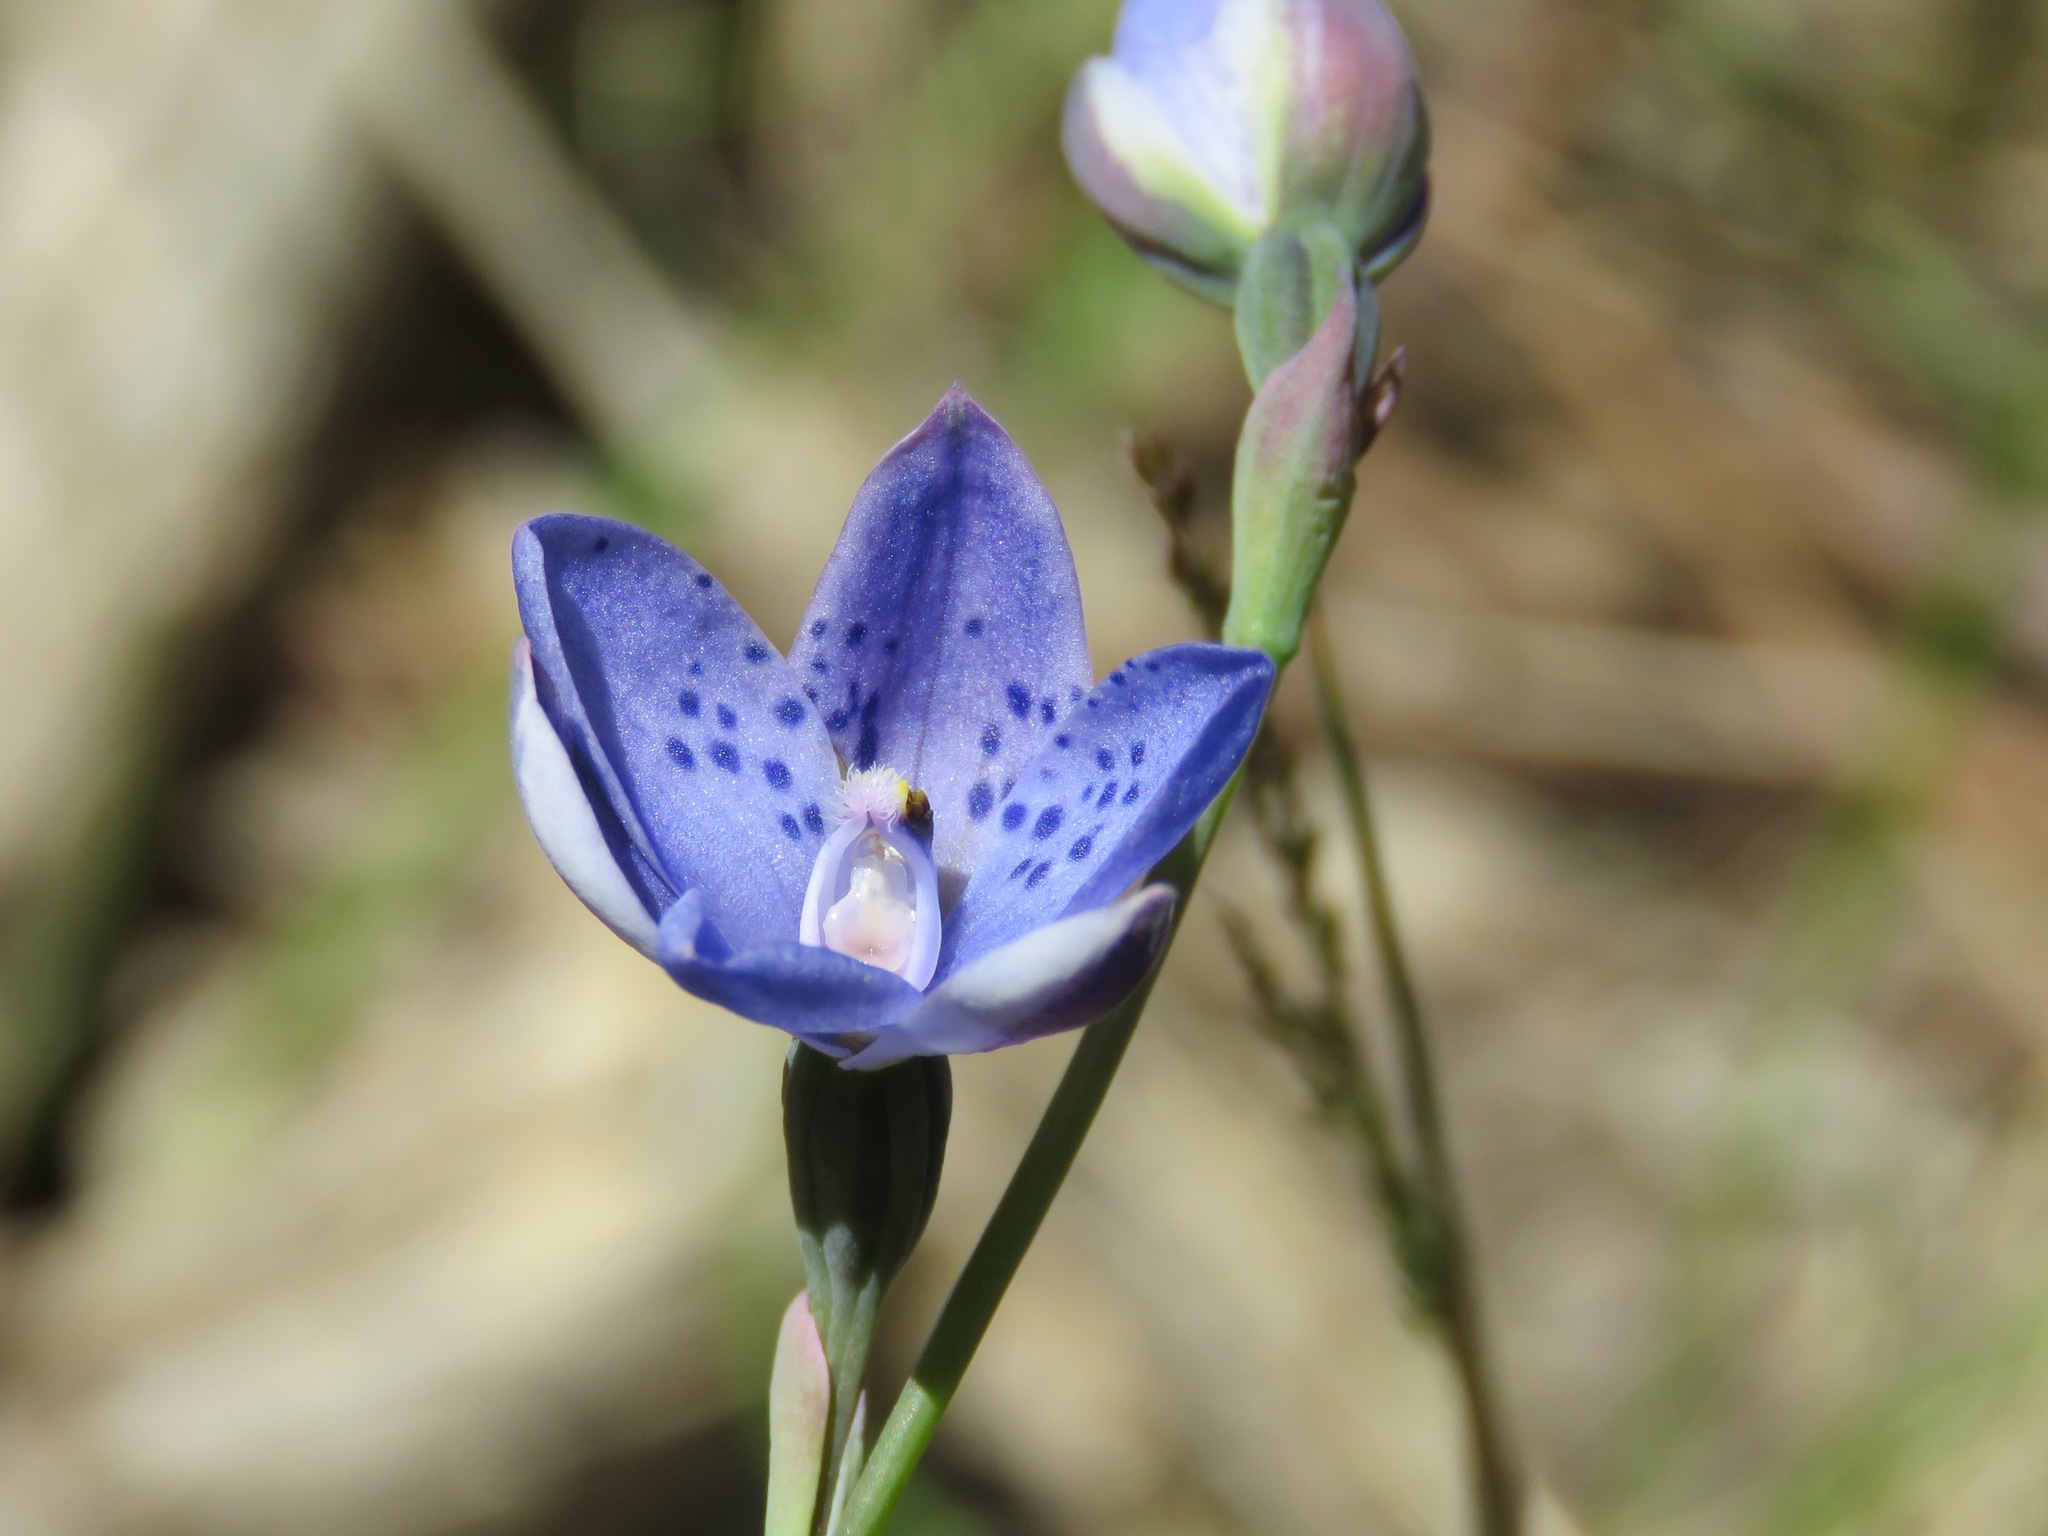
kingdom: Plantae
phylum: Tracheophyta
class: Liliopsida
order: Asparagales
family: Orchidaceae
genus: Thelymitra
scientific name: Thelymitra ixioides
